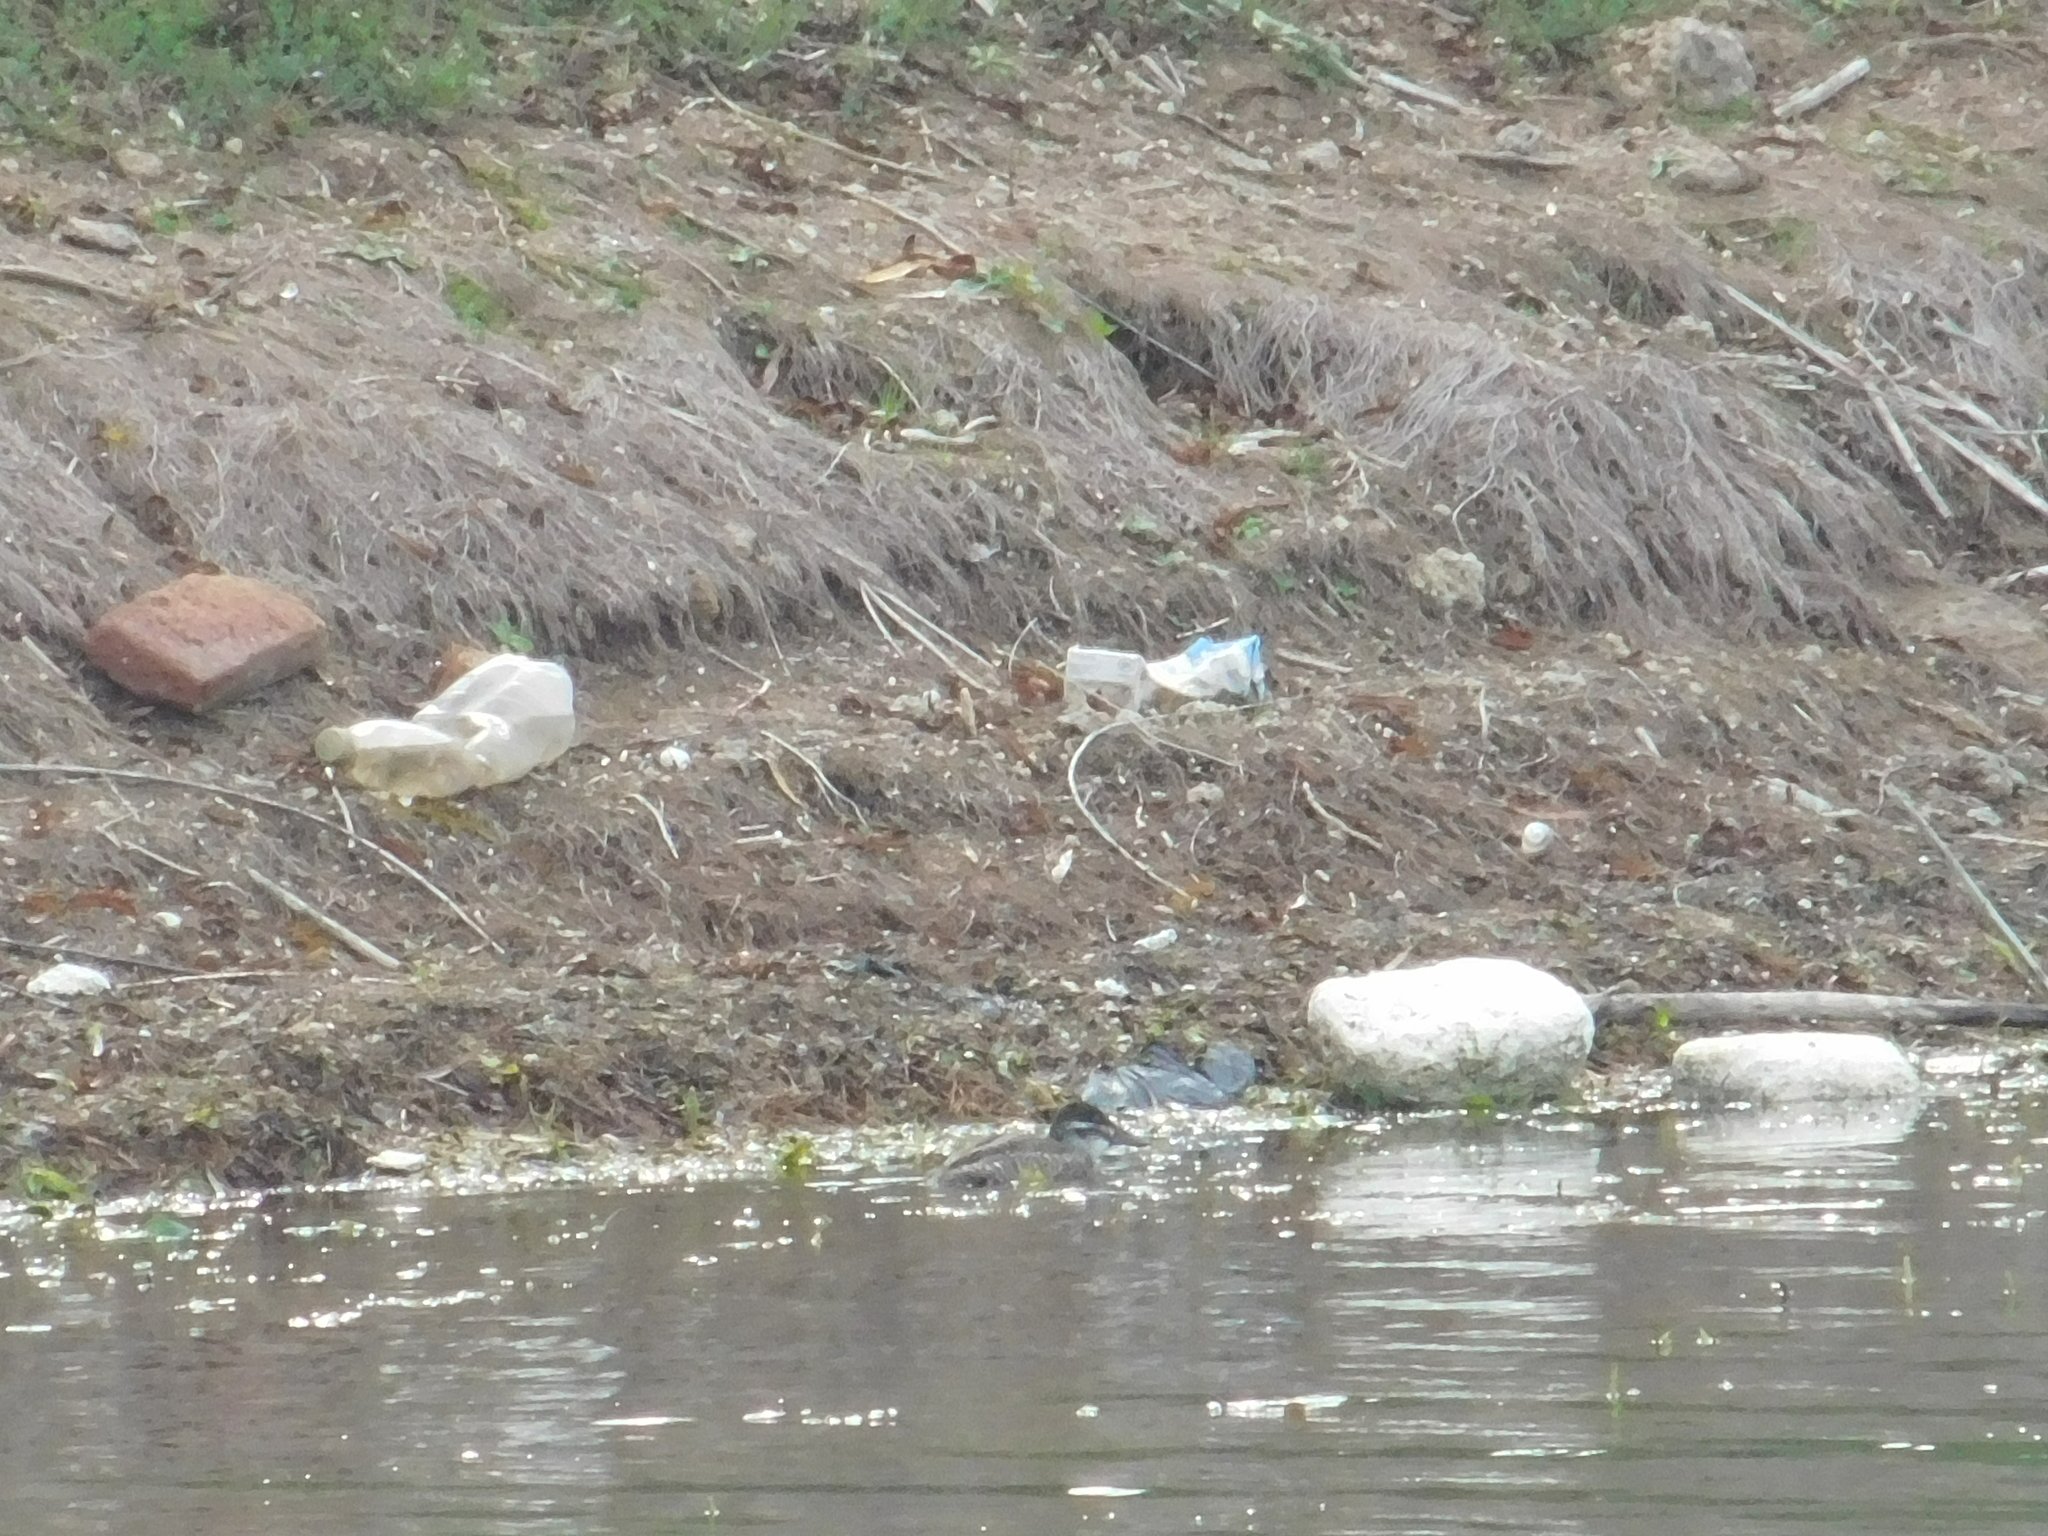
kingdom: Animalia
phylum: Chordata
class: Aves
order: Anseriformes
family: Anatidae
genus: Oxyura
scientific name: Oxyura vittata
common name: Lake duck
